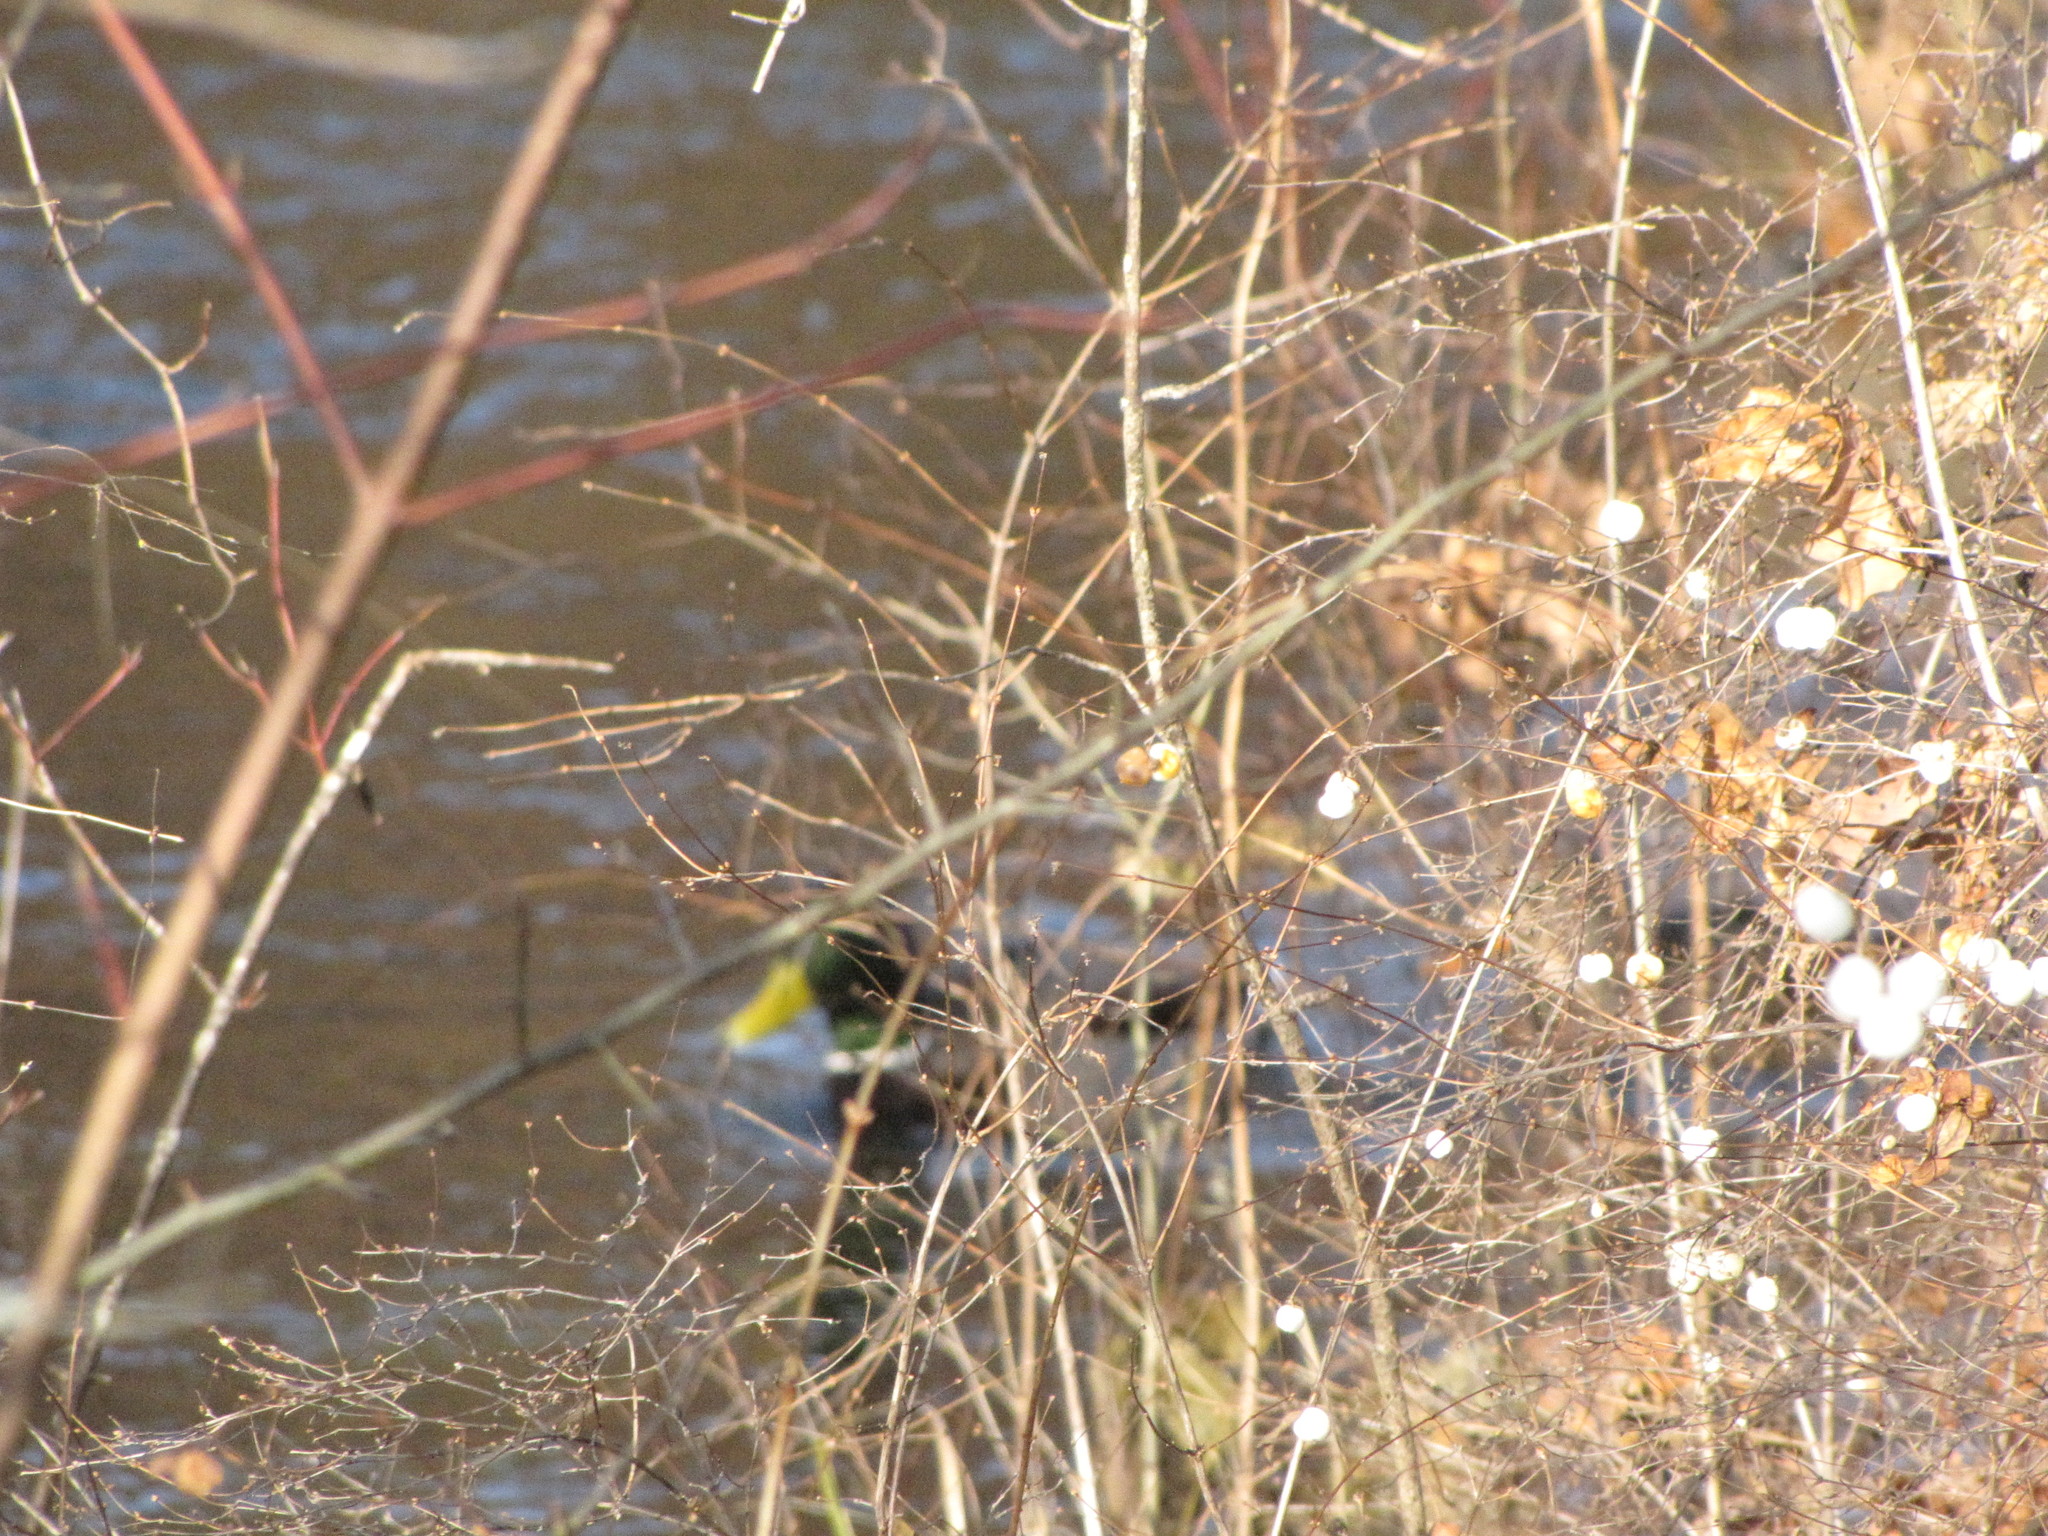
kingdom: Animalia
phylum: Chordata
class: Aves
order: Anseriformes
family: Anatidae
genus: Anas
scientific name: Anas platyrhynchos
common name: Mallard
